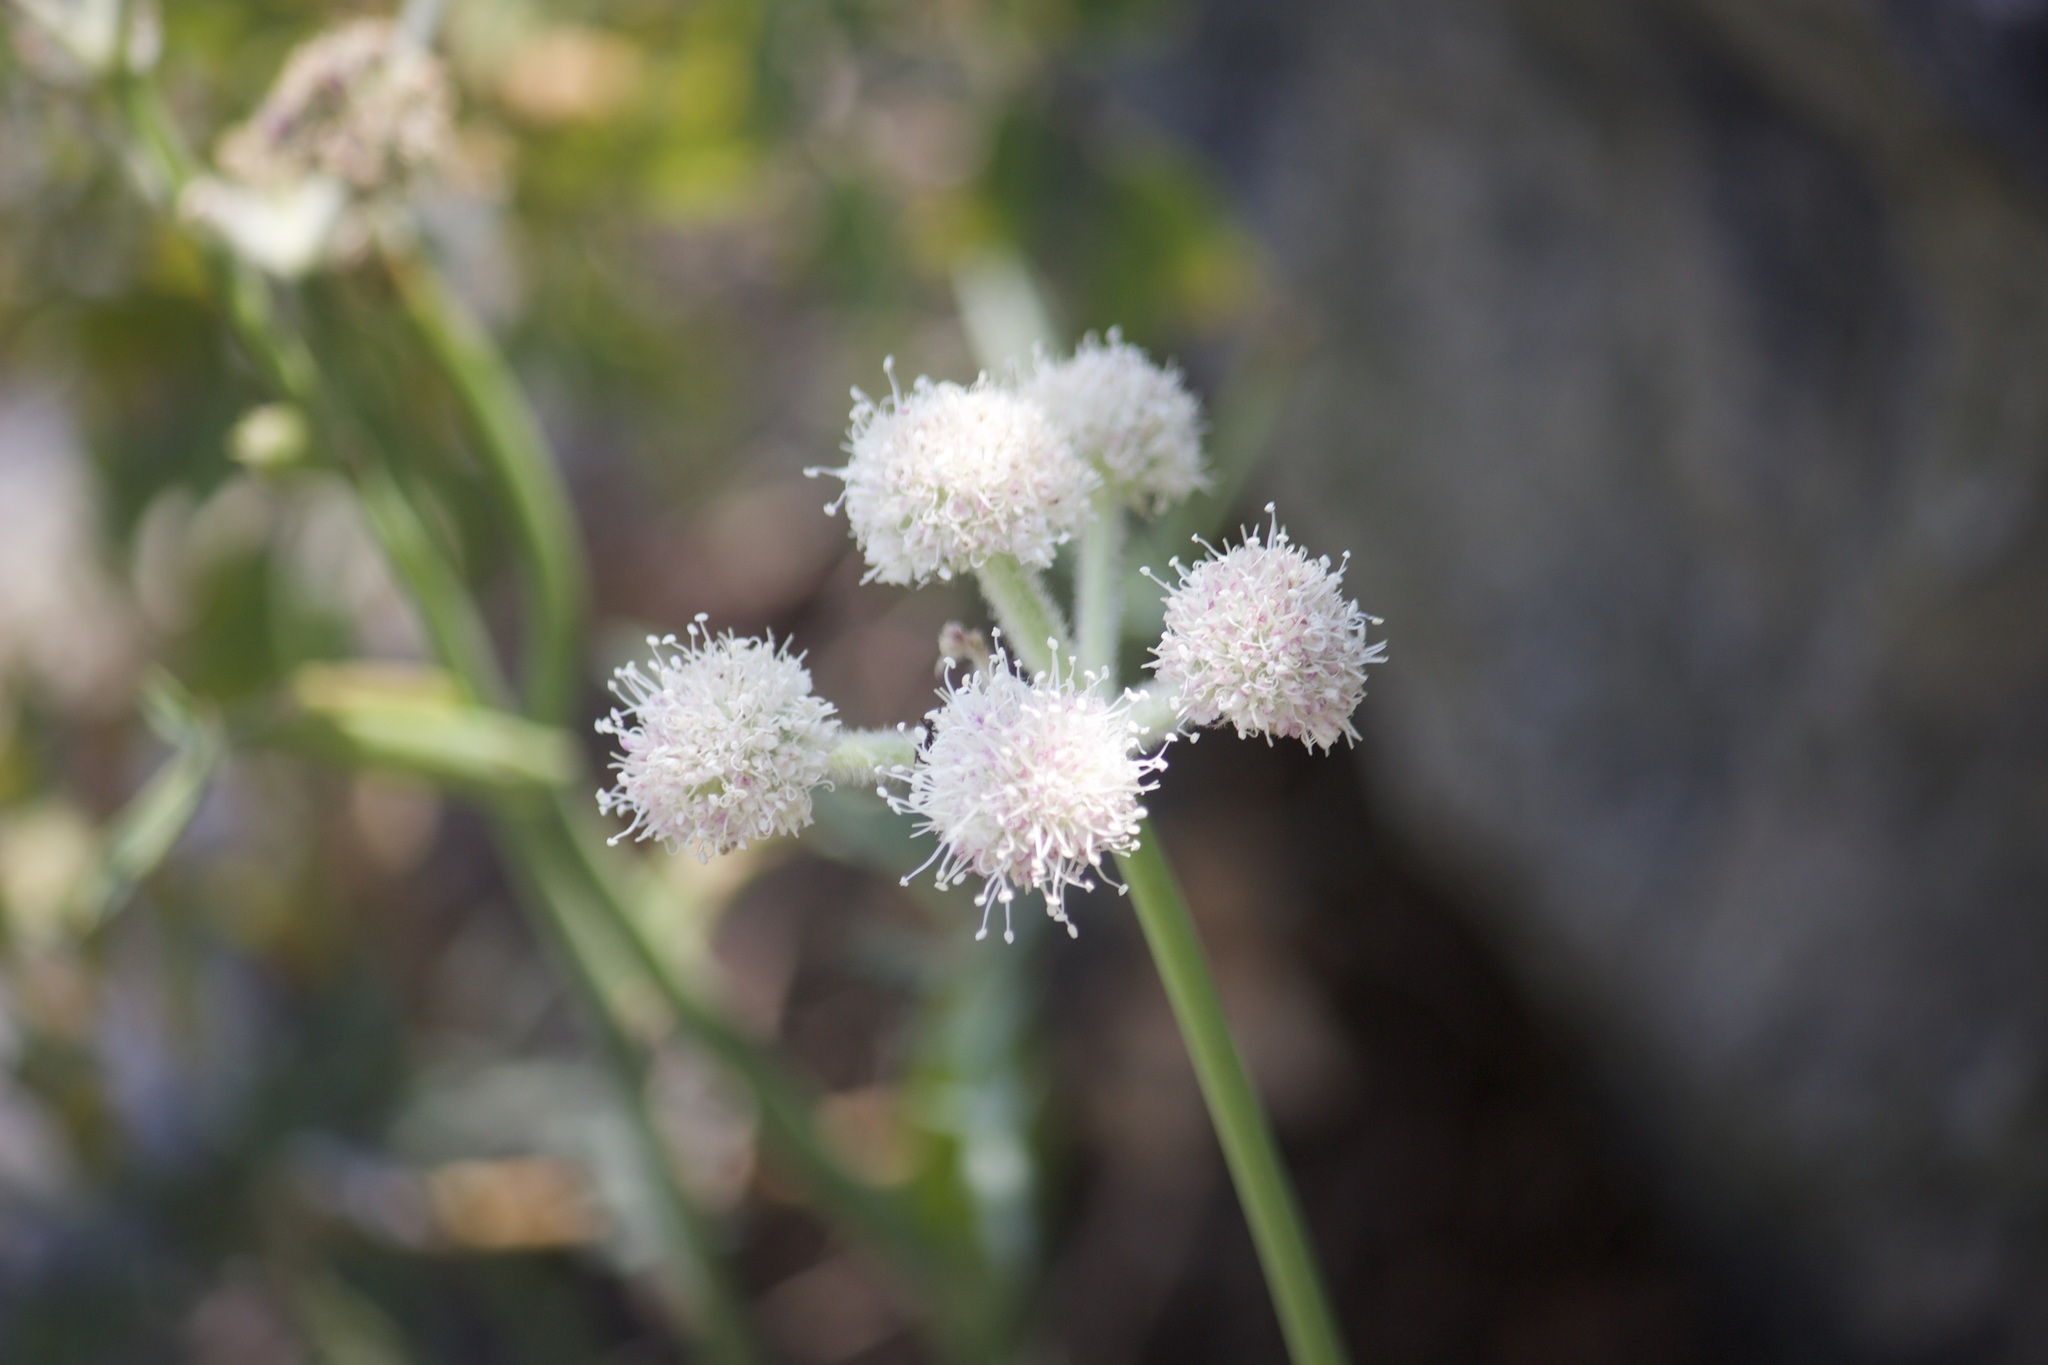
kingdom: Plantae
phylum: Tracheophyta
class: Magnoliopsida
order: Apiales
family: Apiaceae
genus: Angelica
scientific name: Angelica capitellata
